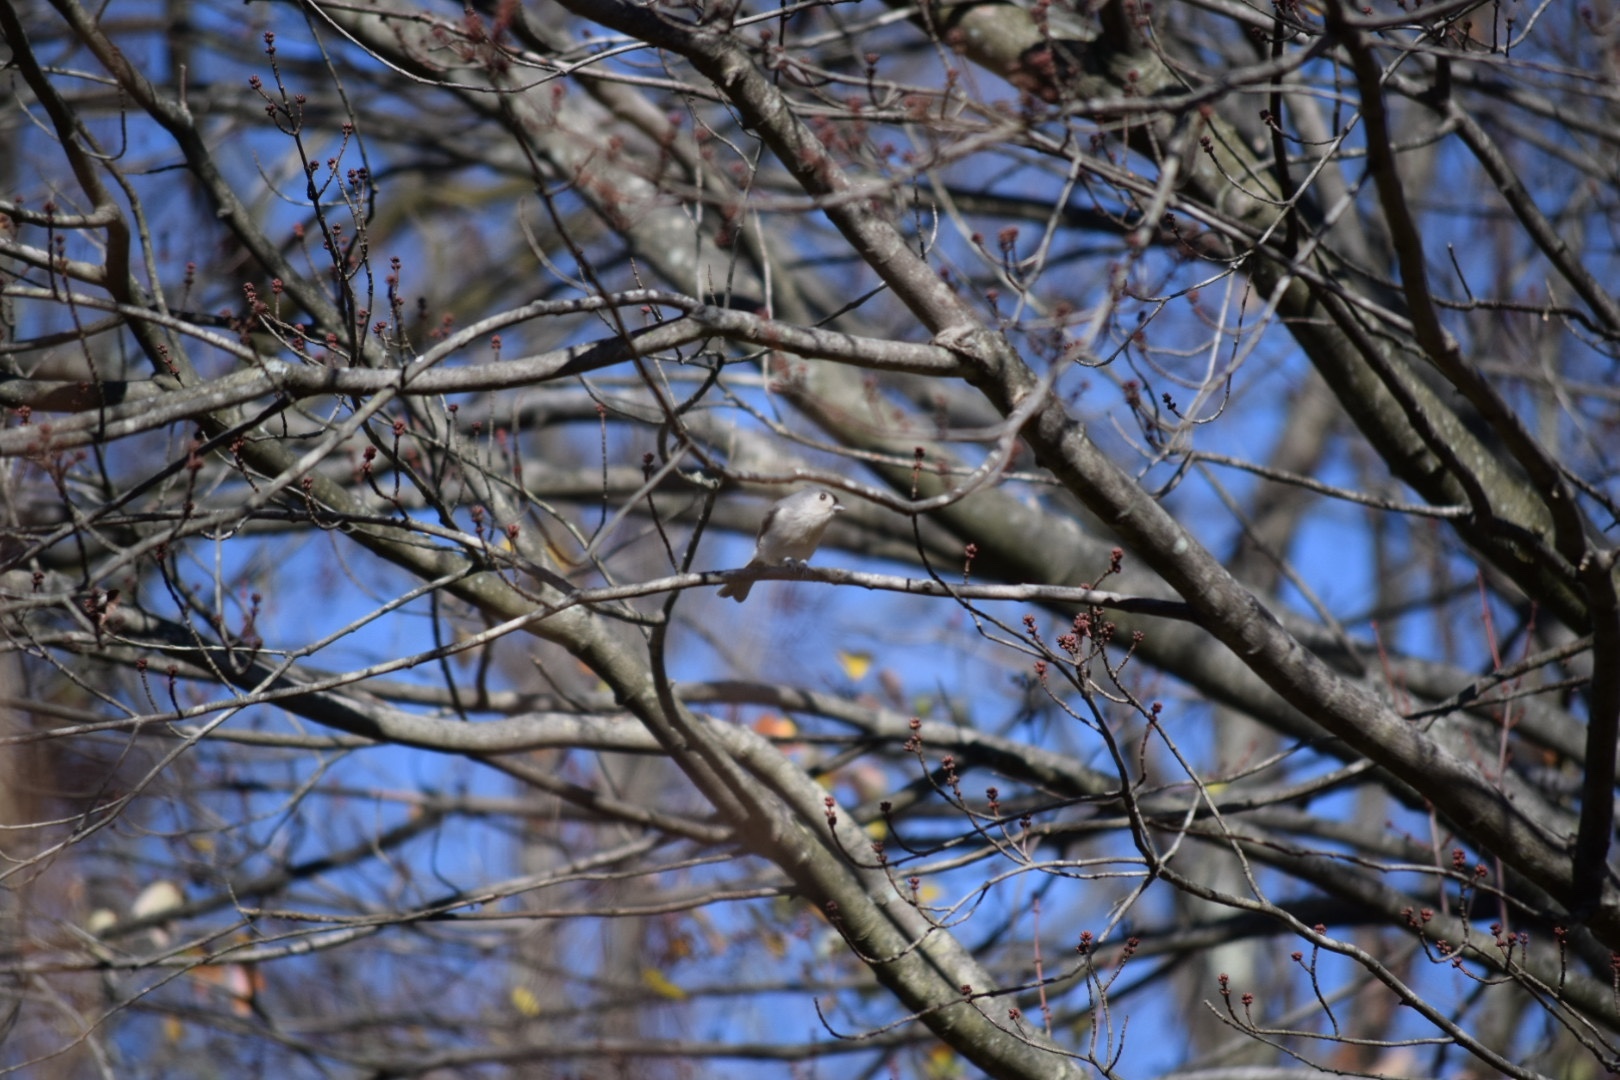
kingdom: Animalia
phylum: Chordata
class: Aves
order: Passeriformes
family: Paridae
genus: Baeolophus
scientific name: Baeolophus bicolor
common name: Tufted titmouse
